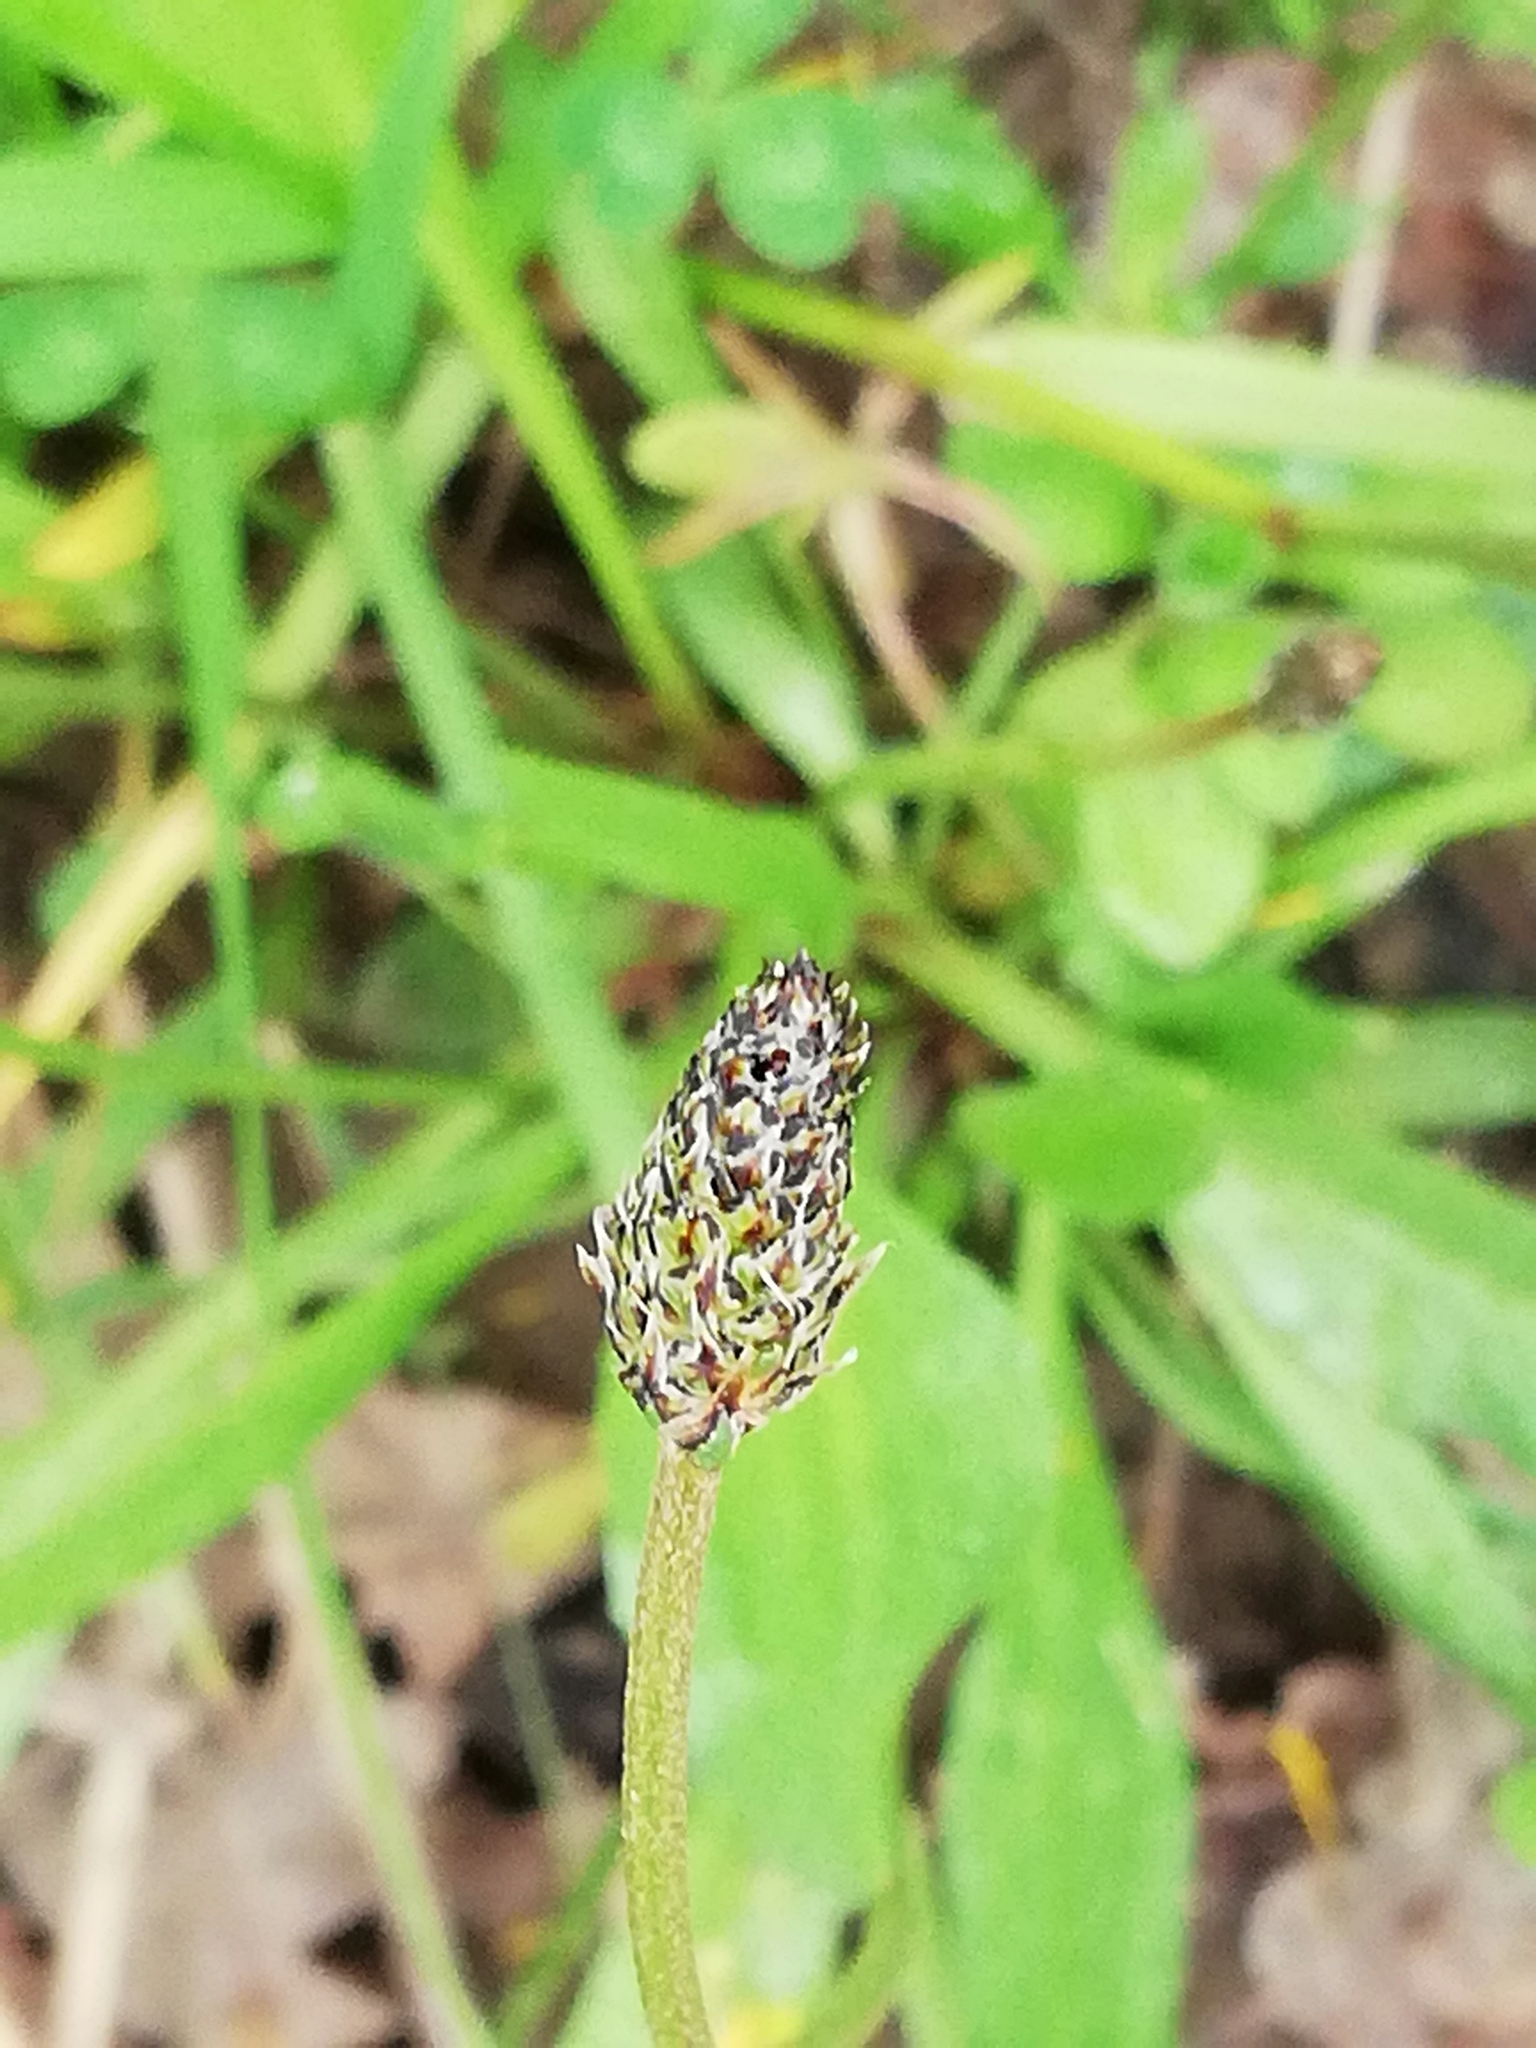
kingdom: Plantae
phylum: Tracheophyta
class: Magnoliopsida
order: Lamiales
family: Plantaginaceae
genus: Plantago
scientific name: Plantago lanceolata
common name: Ribwort plantain
